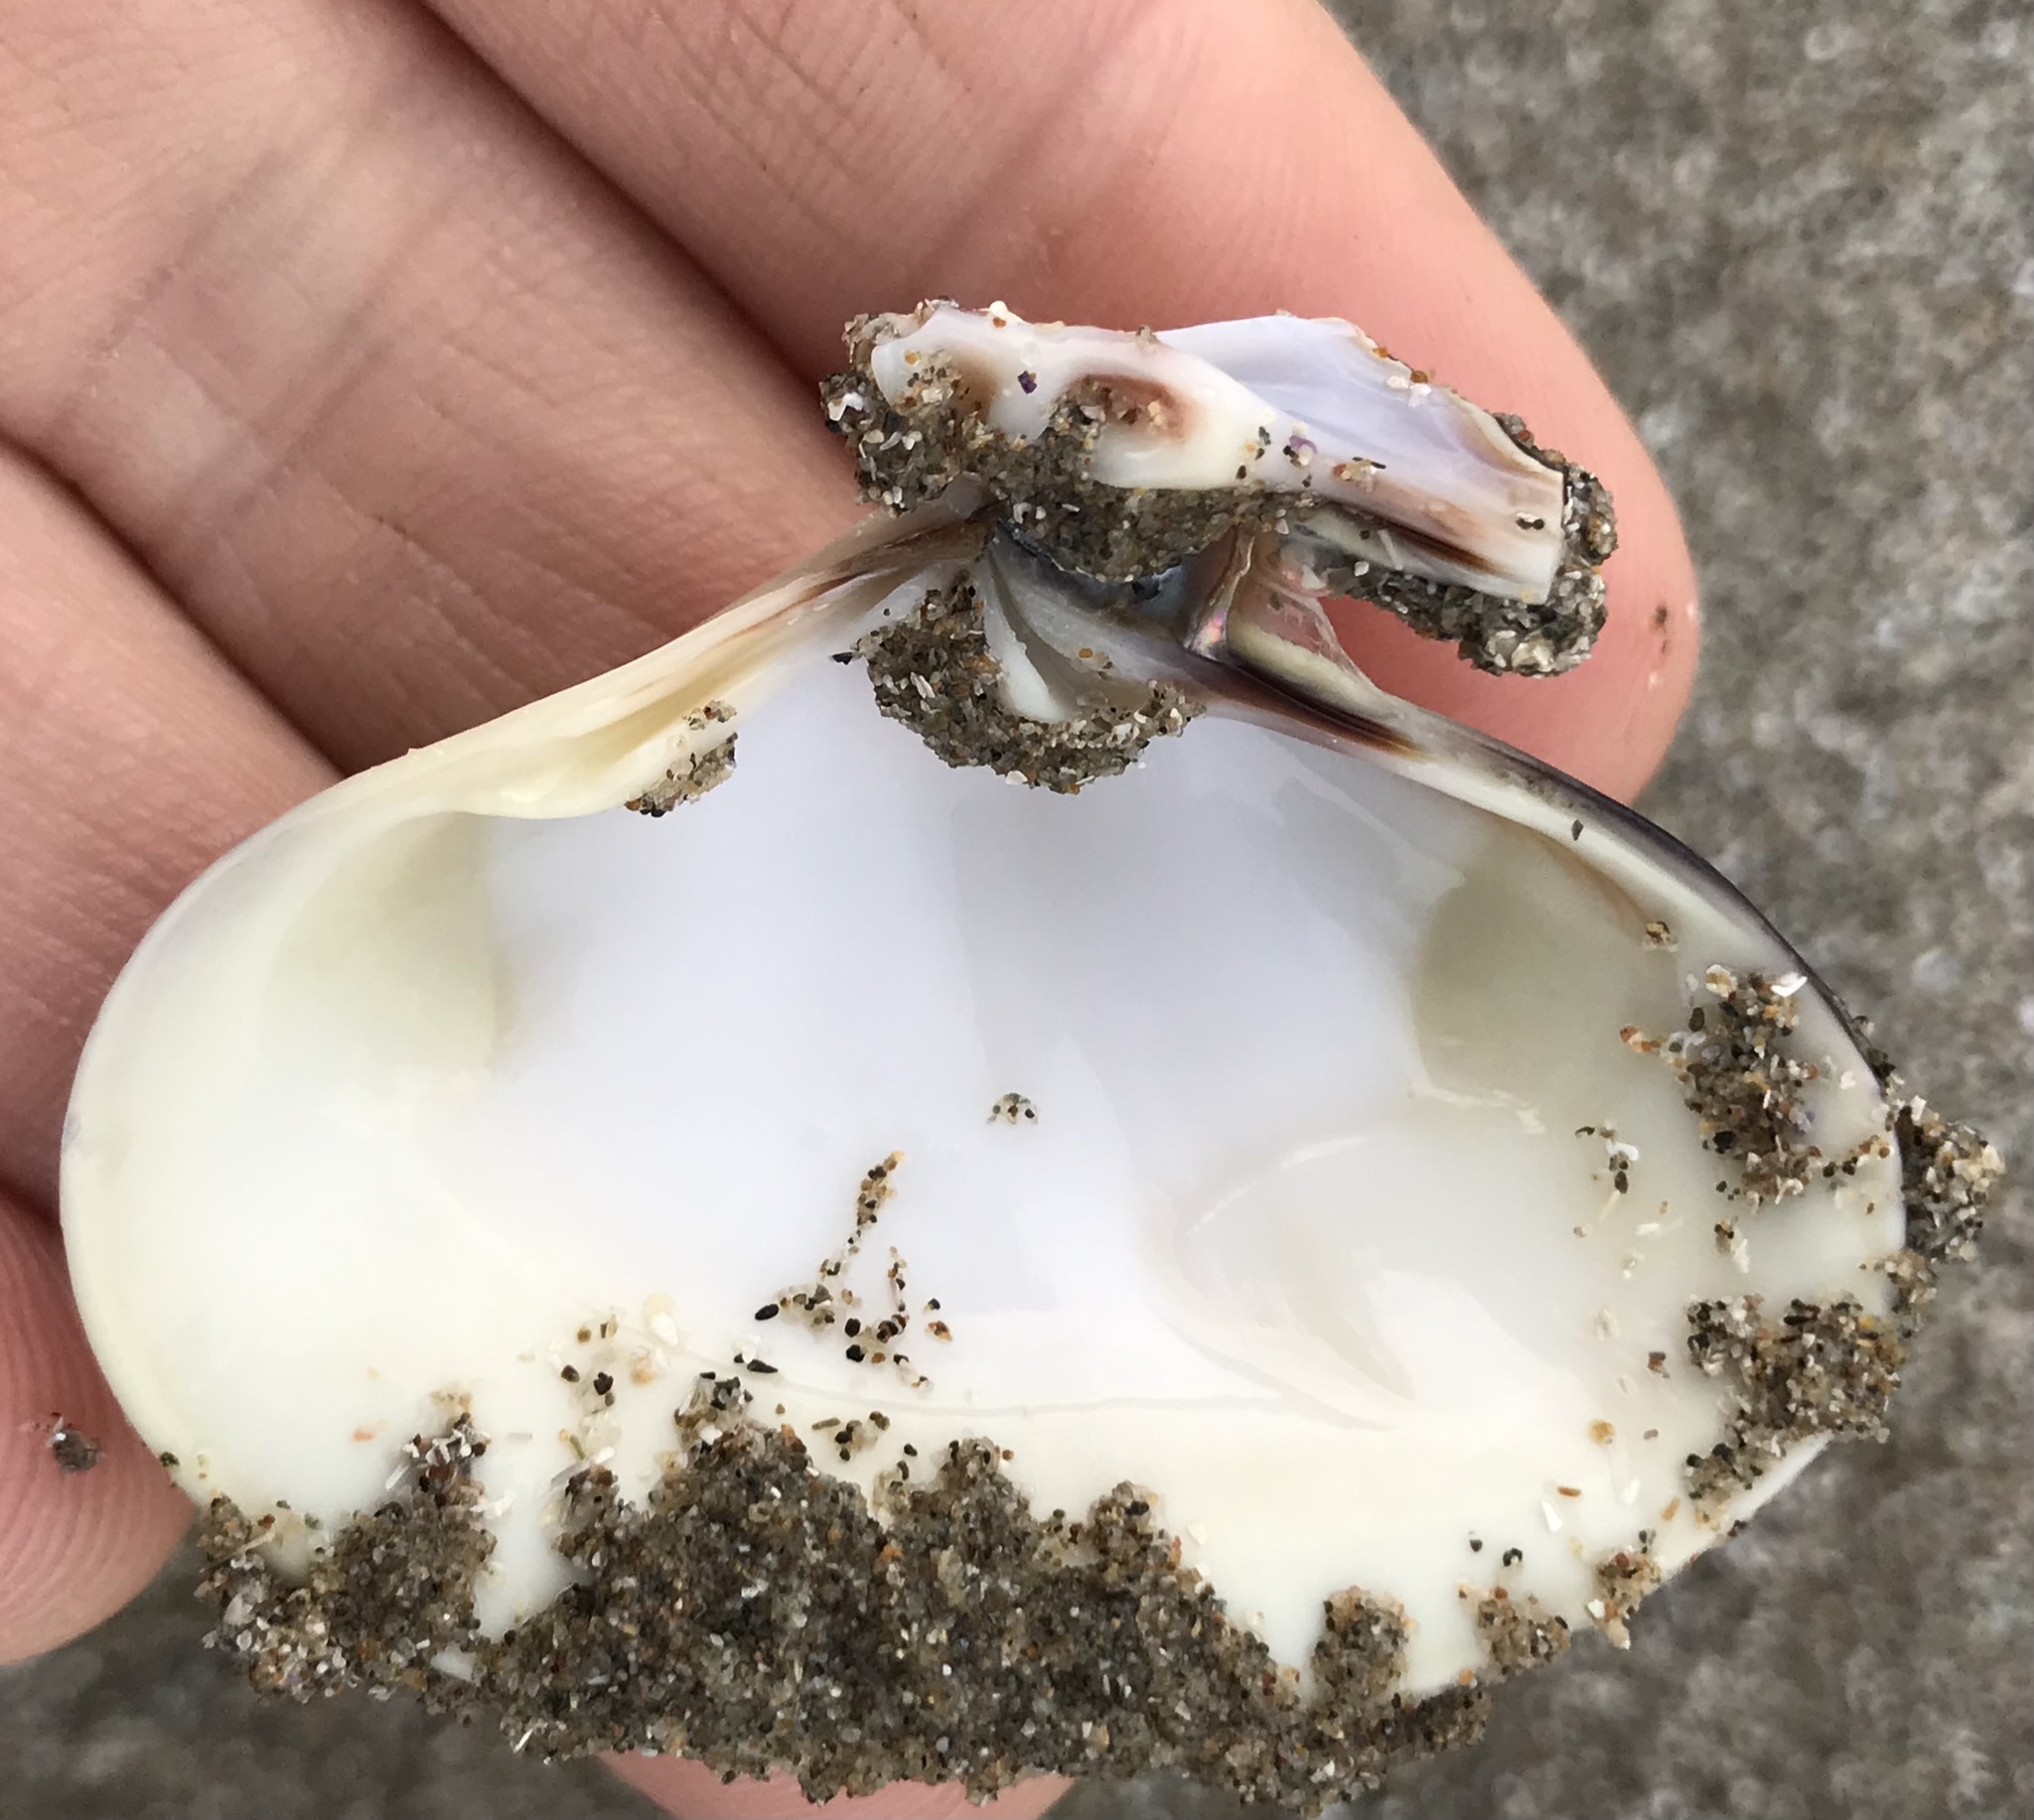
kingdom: Animalia
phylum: Mollusca
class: Bivalvia
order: Venerida
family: Veneridae
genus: Tivela
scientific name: Tivela stultorum
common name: Pismo clam
